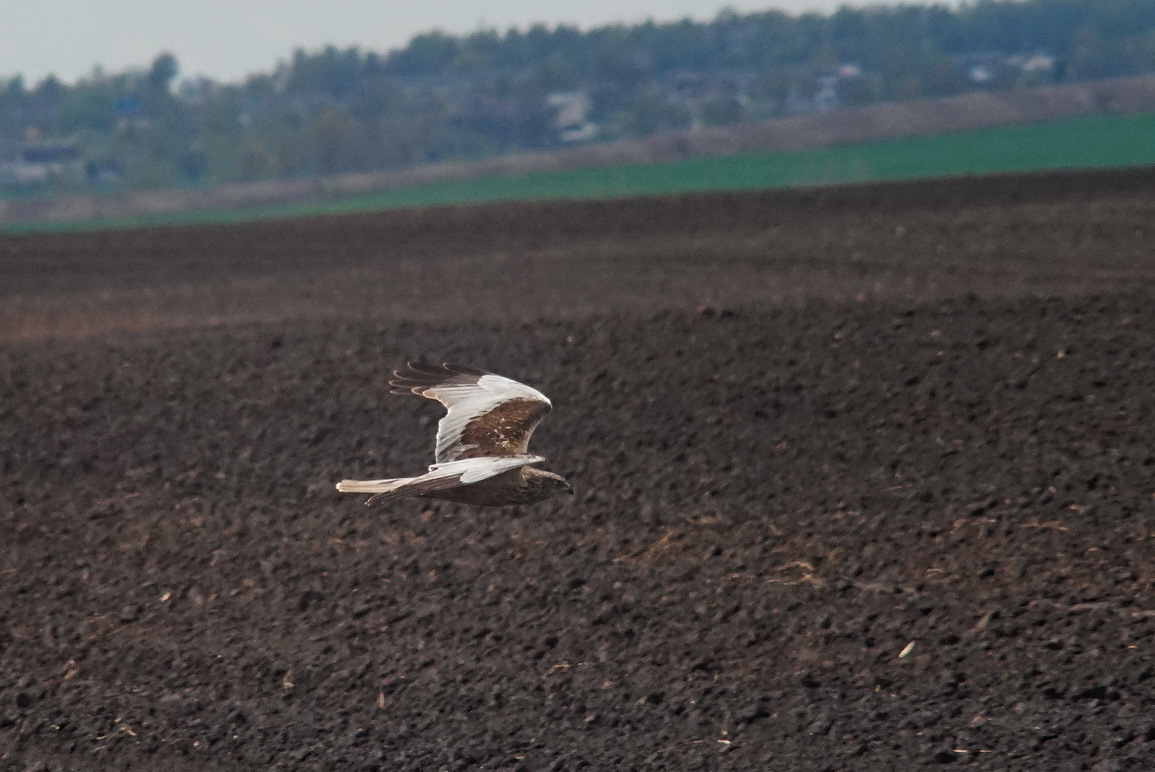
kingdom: Animalia
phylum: Chordata
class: Aves
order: Accipitriformes
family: Accipitridae
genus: Circus
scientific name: Circus aeruginosus
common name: Western marsh harrier
